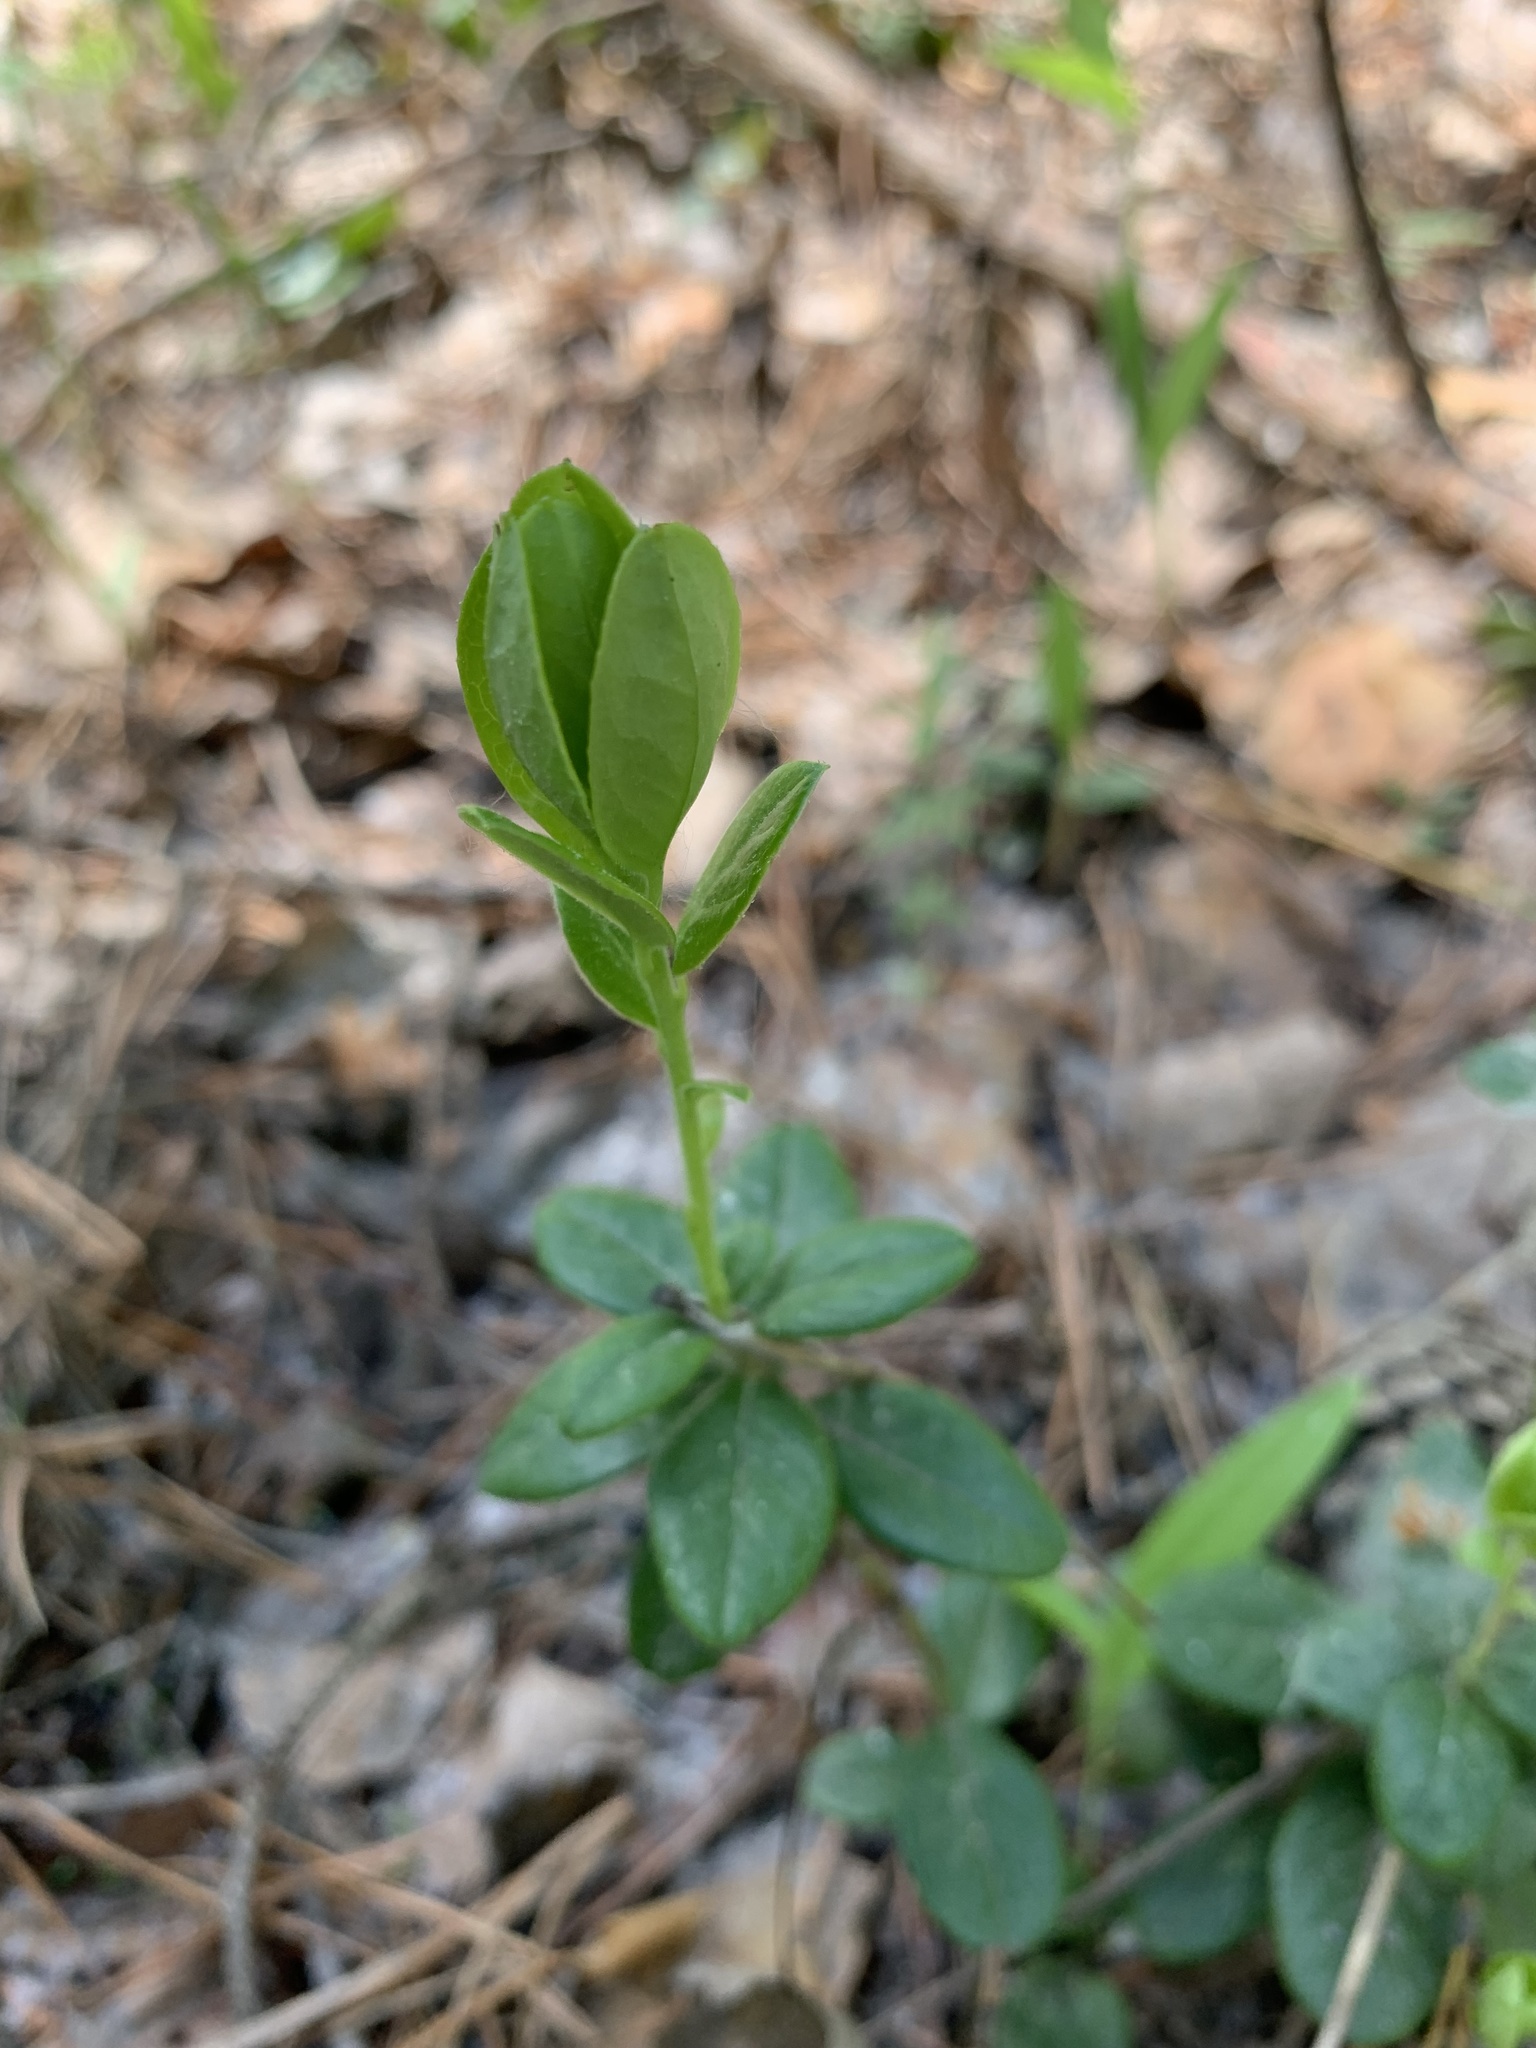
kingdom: Plantae
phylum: Tracheophyta
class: Magnoliopsida
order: Ericales
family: Ericaceae
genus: Vaccinium
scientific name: Vaccinium vitis-idaea
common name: Cowberry
